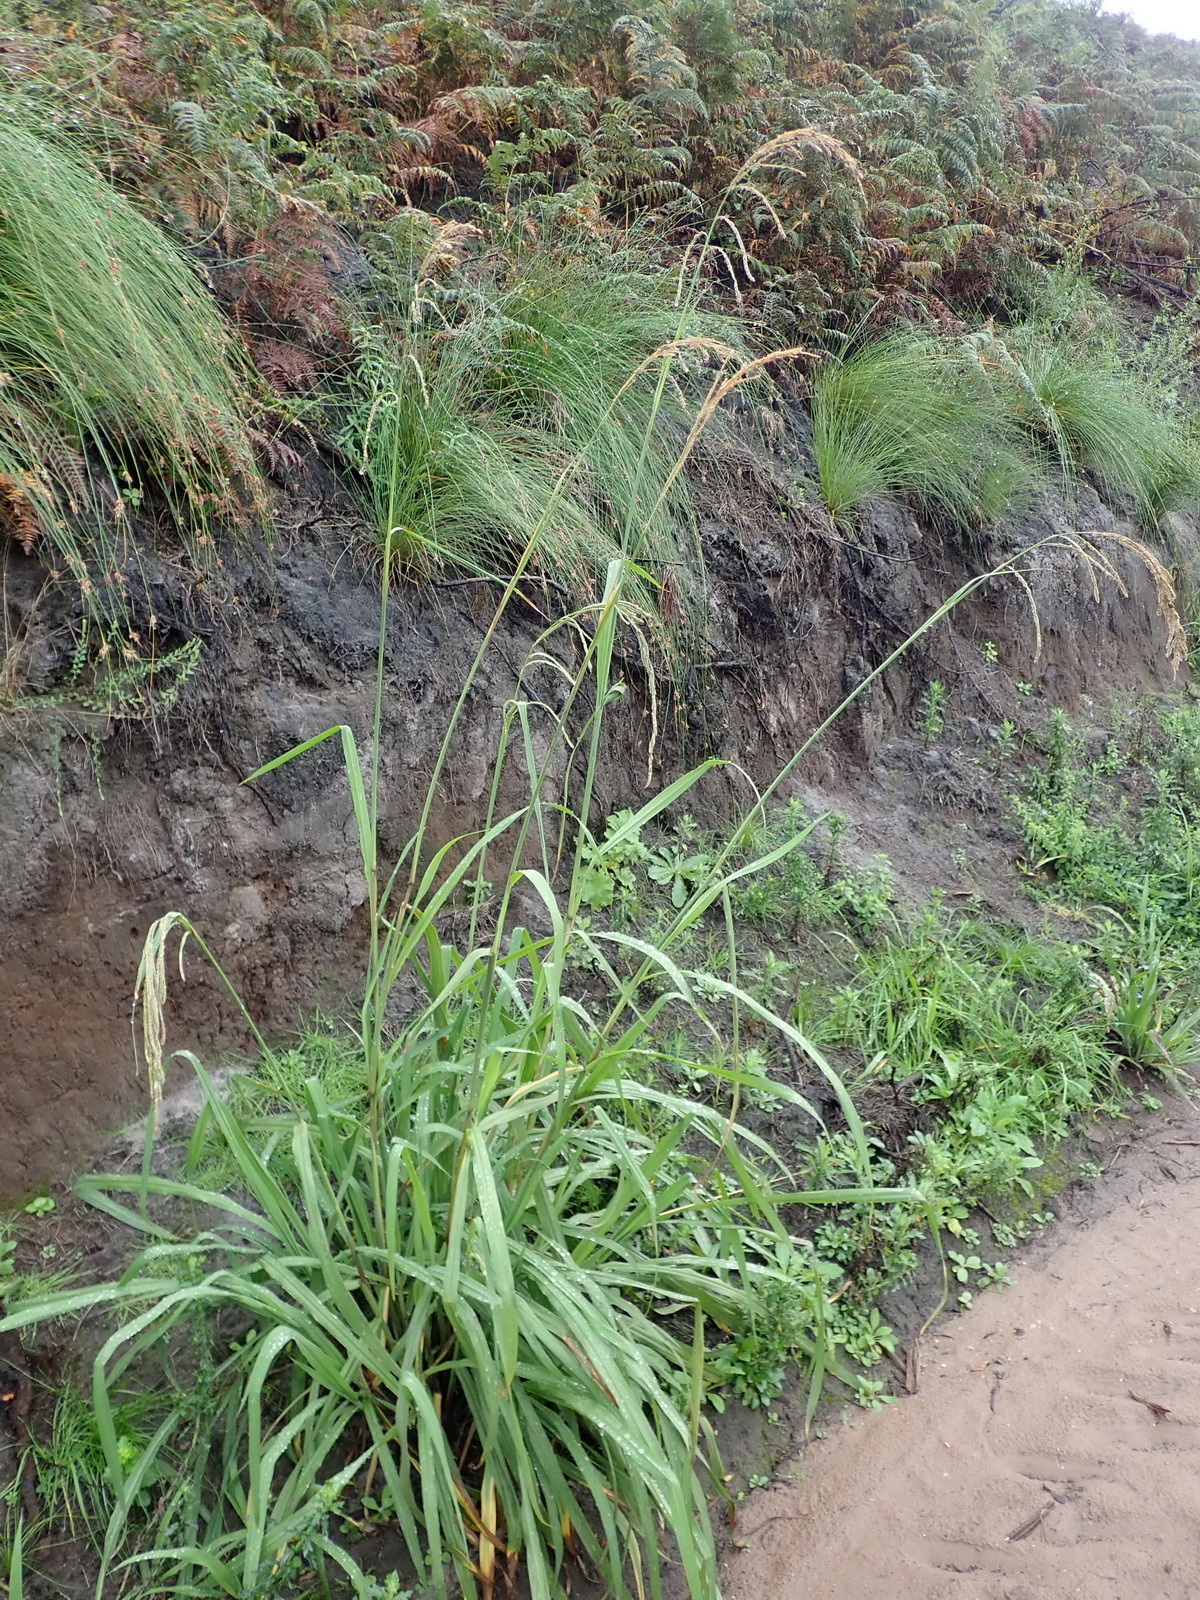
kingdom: Plantae
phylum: Tracheophyta
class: Liliopsida
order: Poales
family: Poaceae
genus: Paspalum
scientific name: Paspalum urvillei
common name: Vasey's grass
